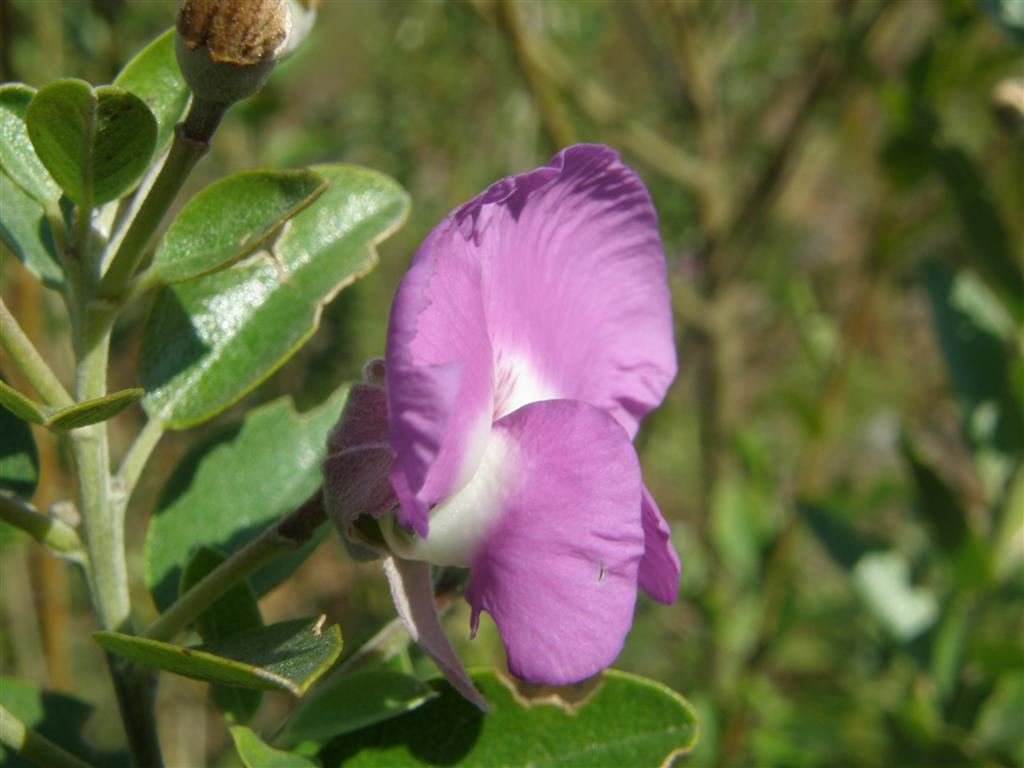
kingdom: Plantae
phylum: Tracheophyta
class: Magnoliopsida
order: Fabales
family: Fabaceae
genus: Podalyria
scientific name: Podalyria calyptrata
